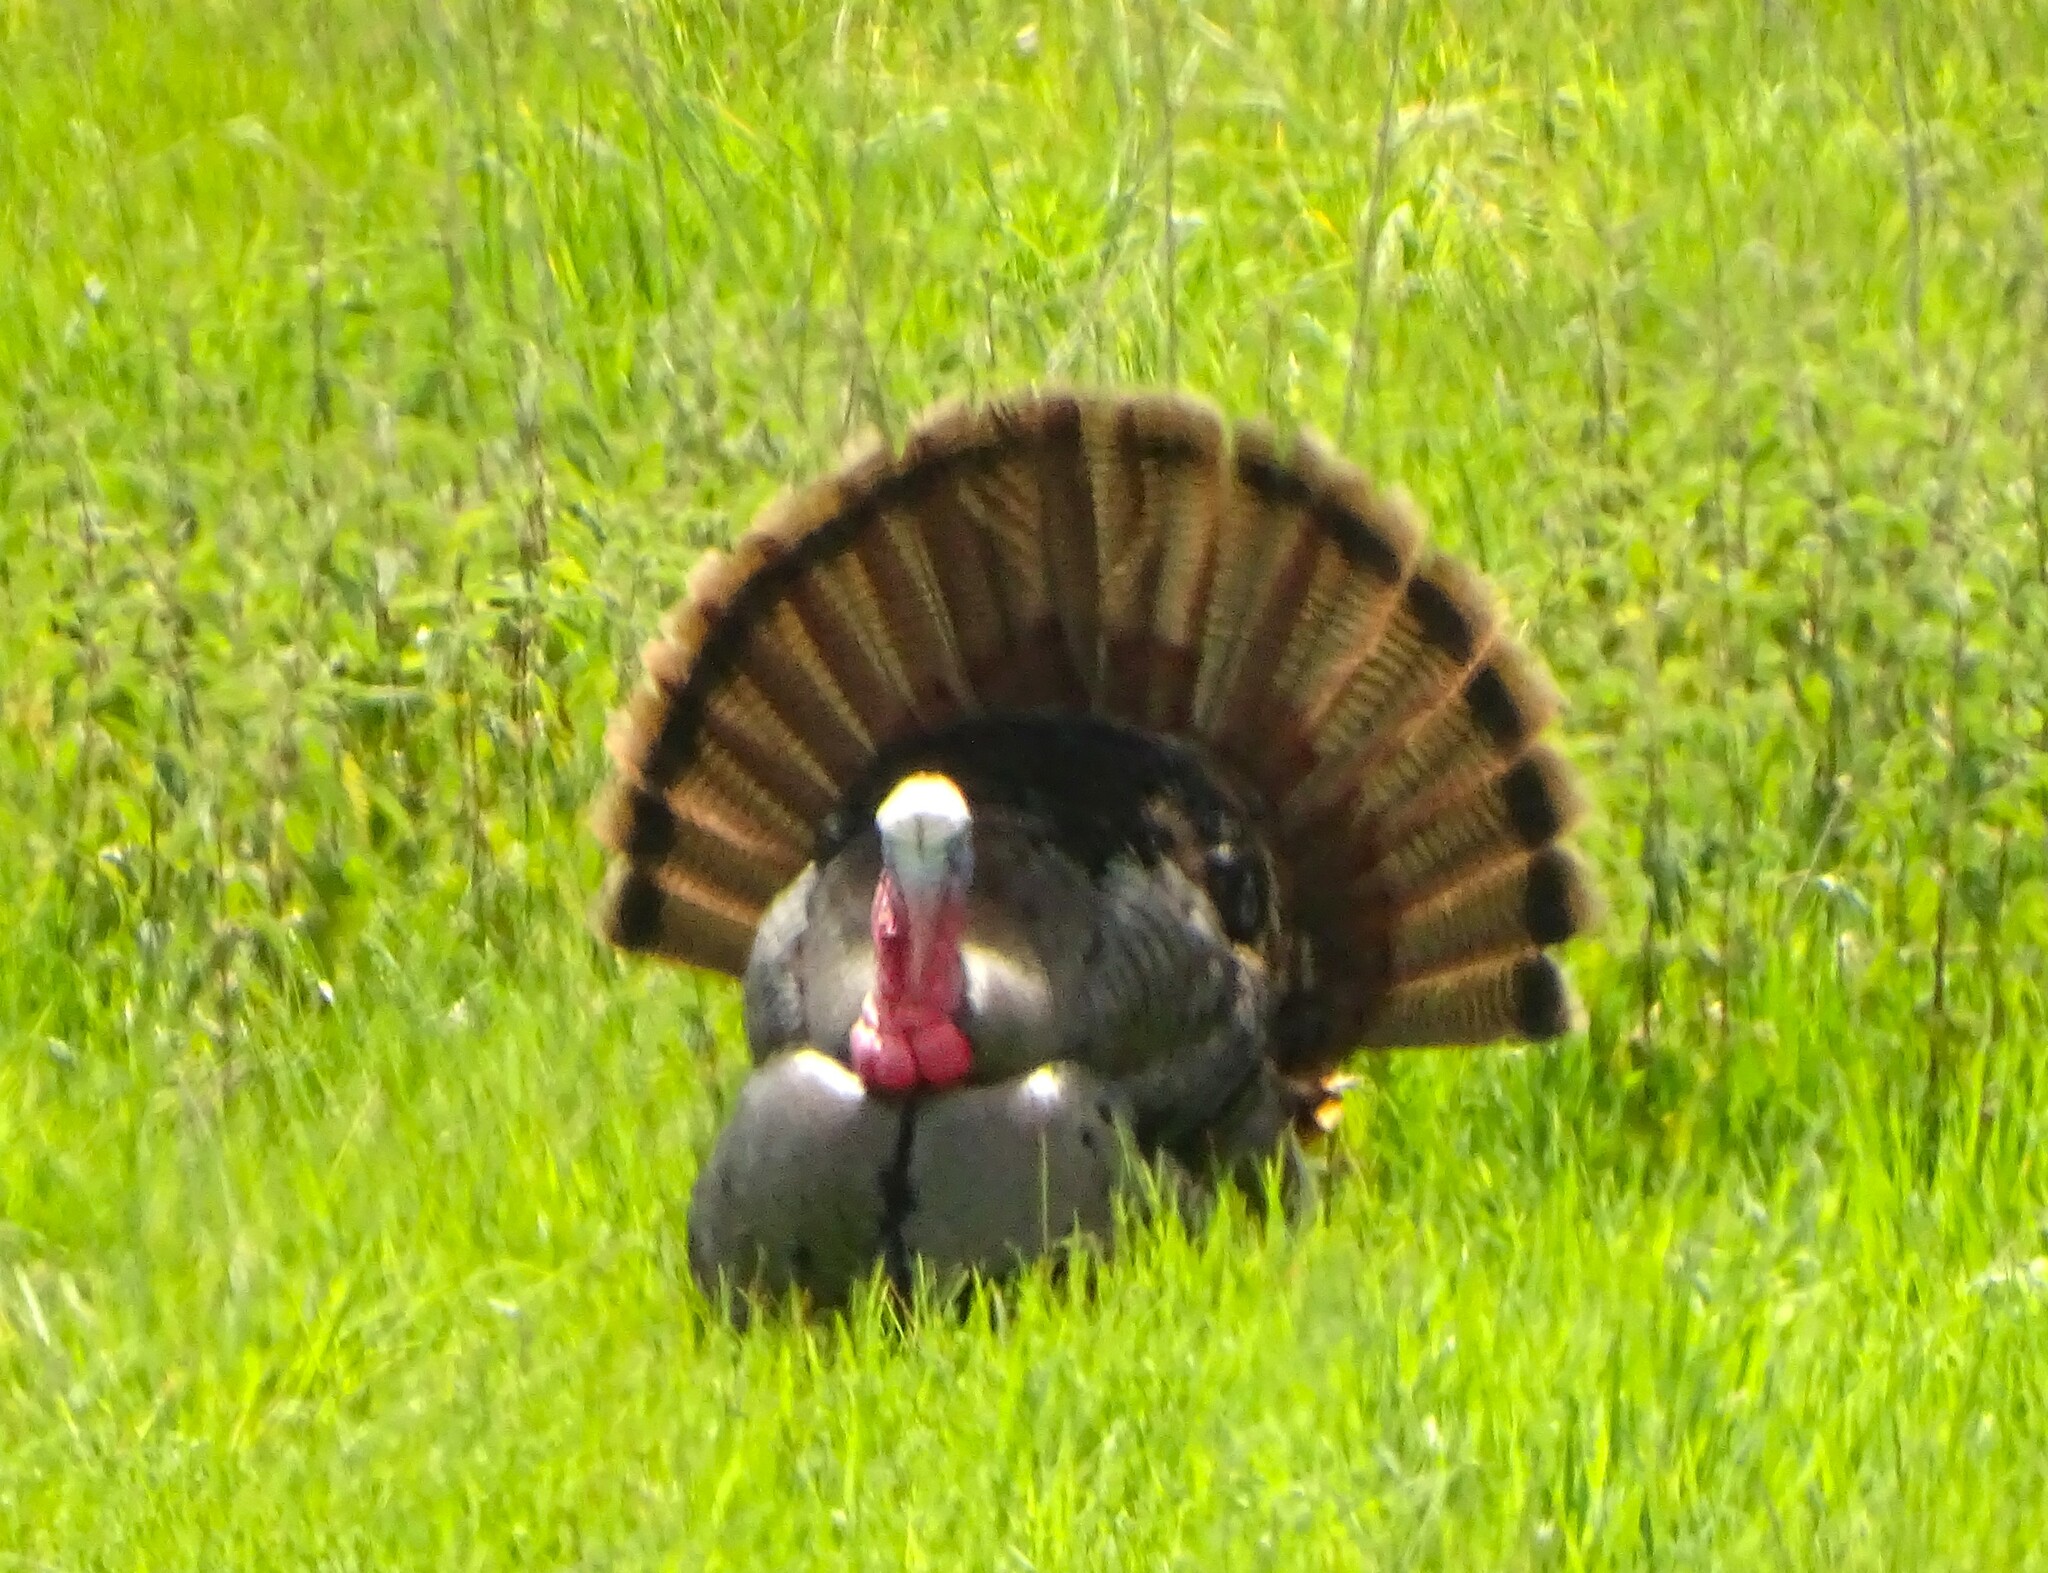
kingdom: Animalia
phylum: Chordata
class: Aves
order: Galliformes
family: Phasianidae
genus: Meleagris
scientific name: Meleagris gallopavo
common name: Wild turkey
